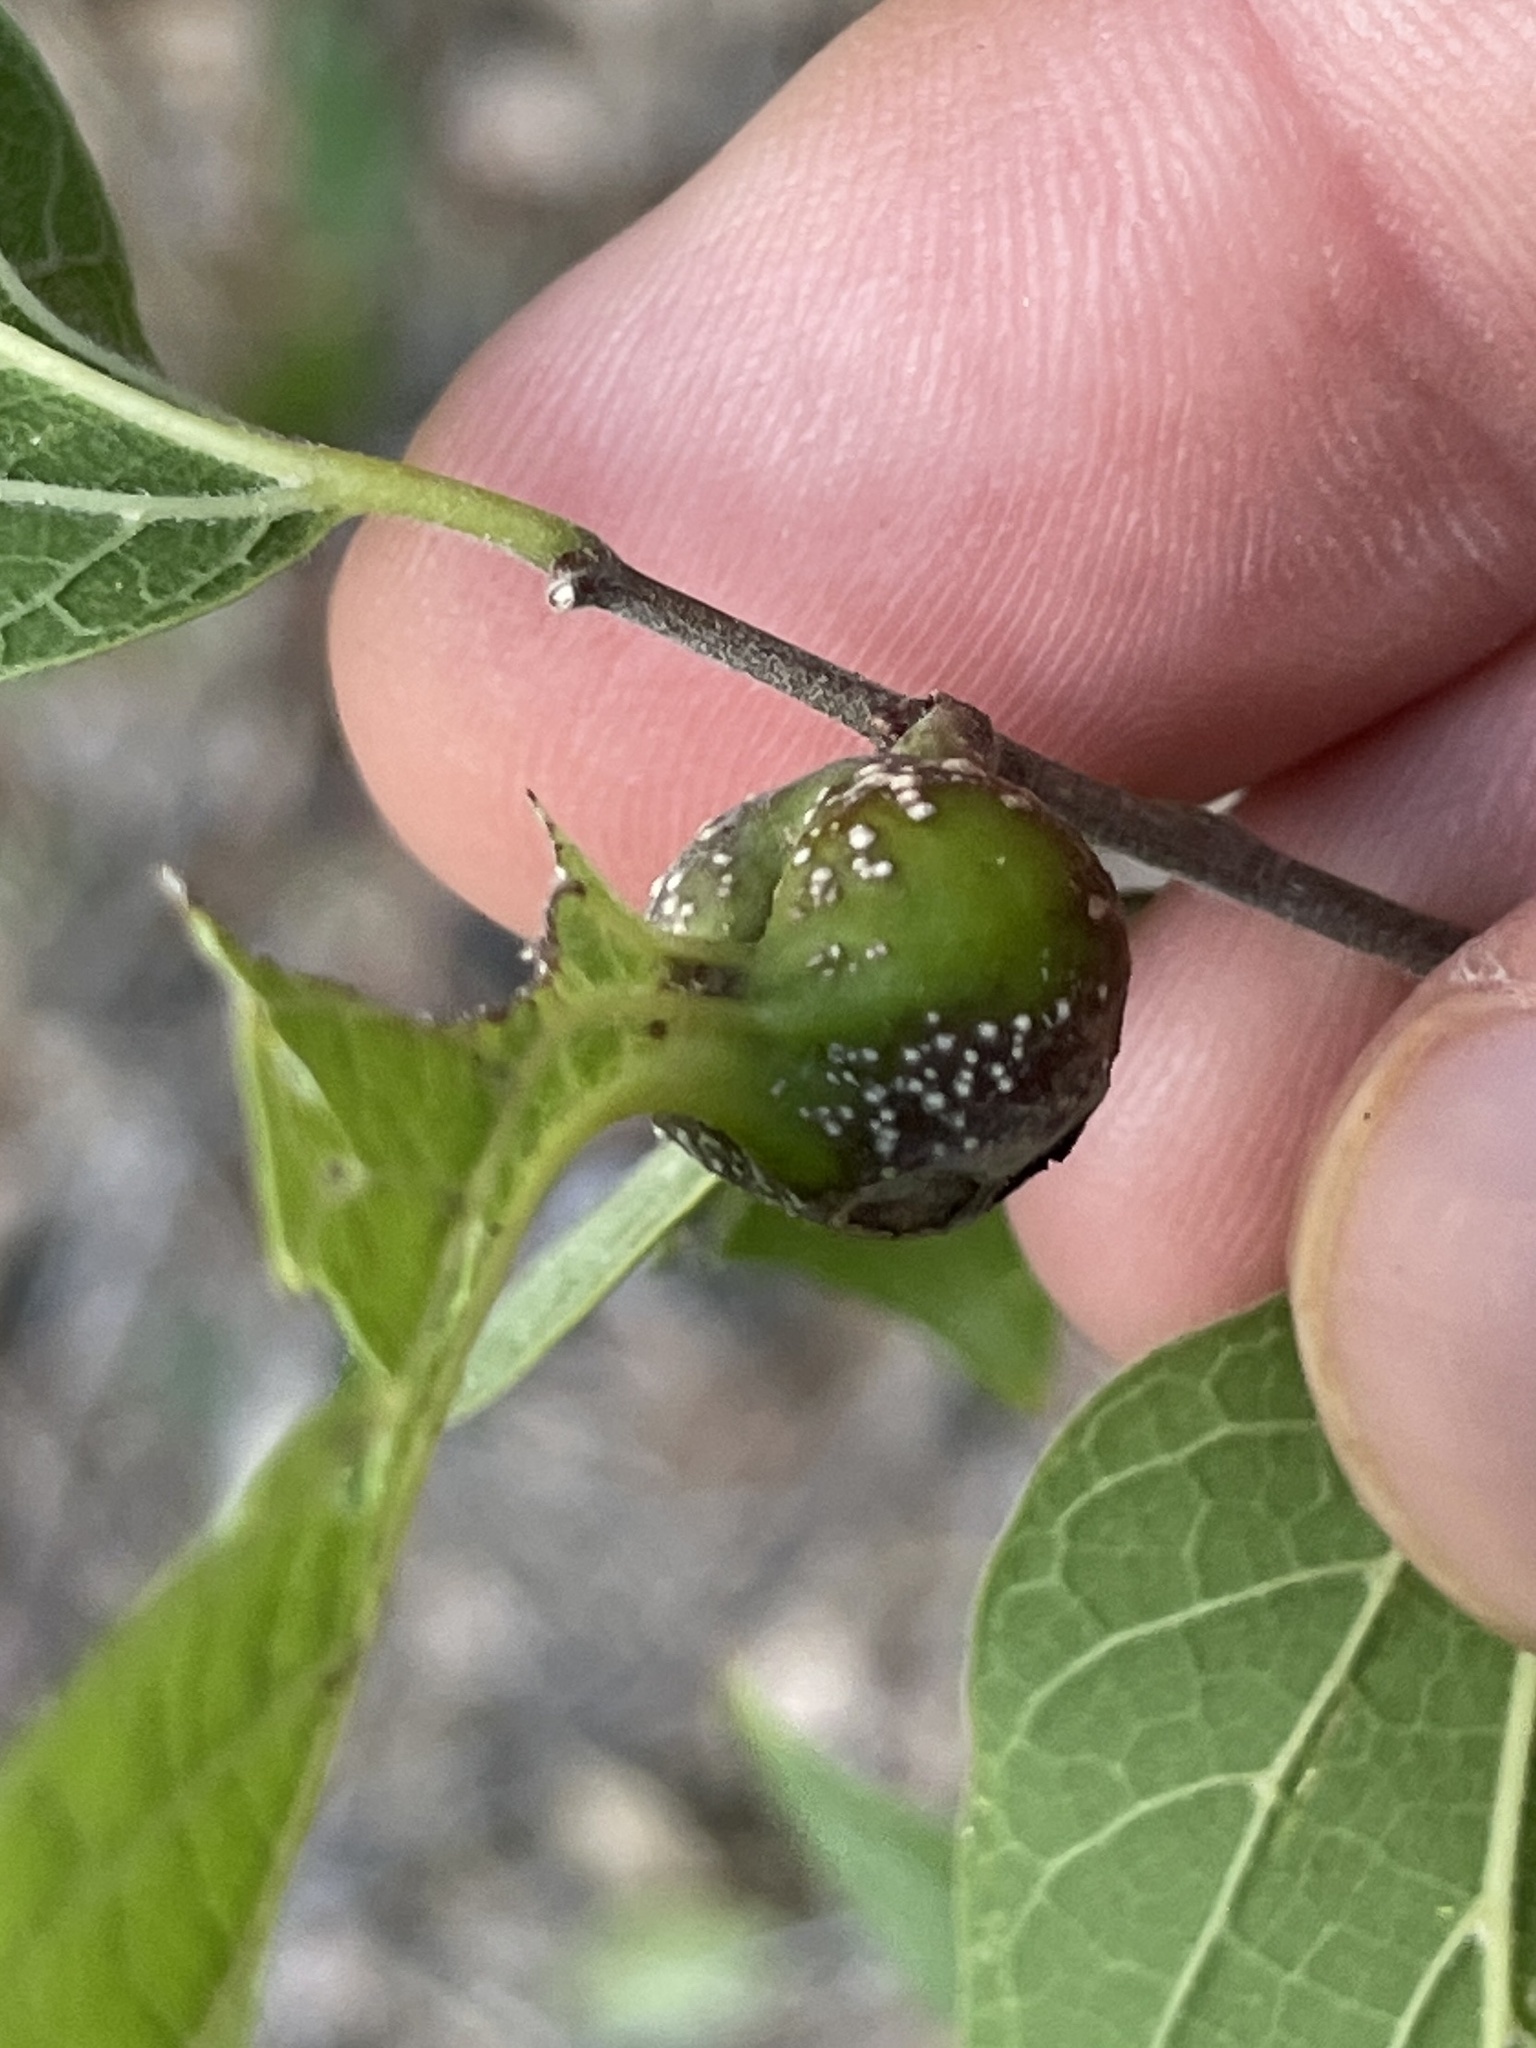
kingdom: Animalia
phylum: Arthropoda
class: Insecta
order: Hemiptera
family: Aphalaridae
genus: Pachypsylla
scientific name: Pachypsylla venusta
